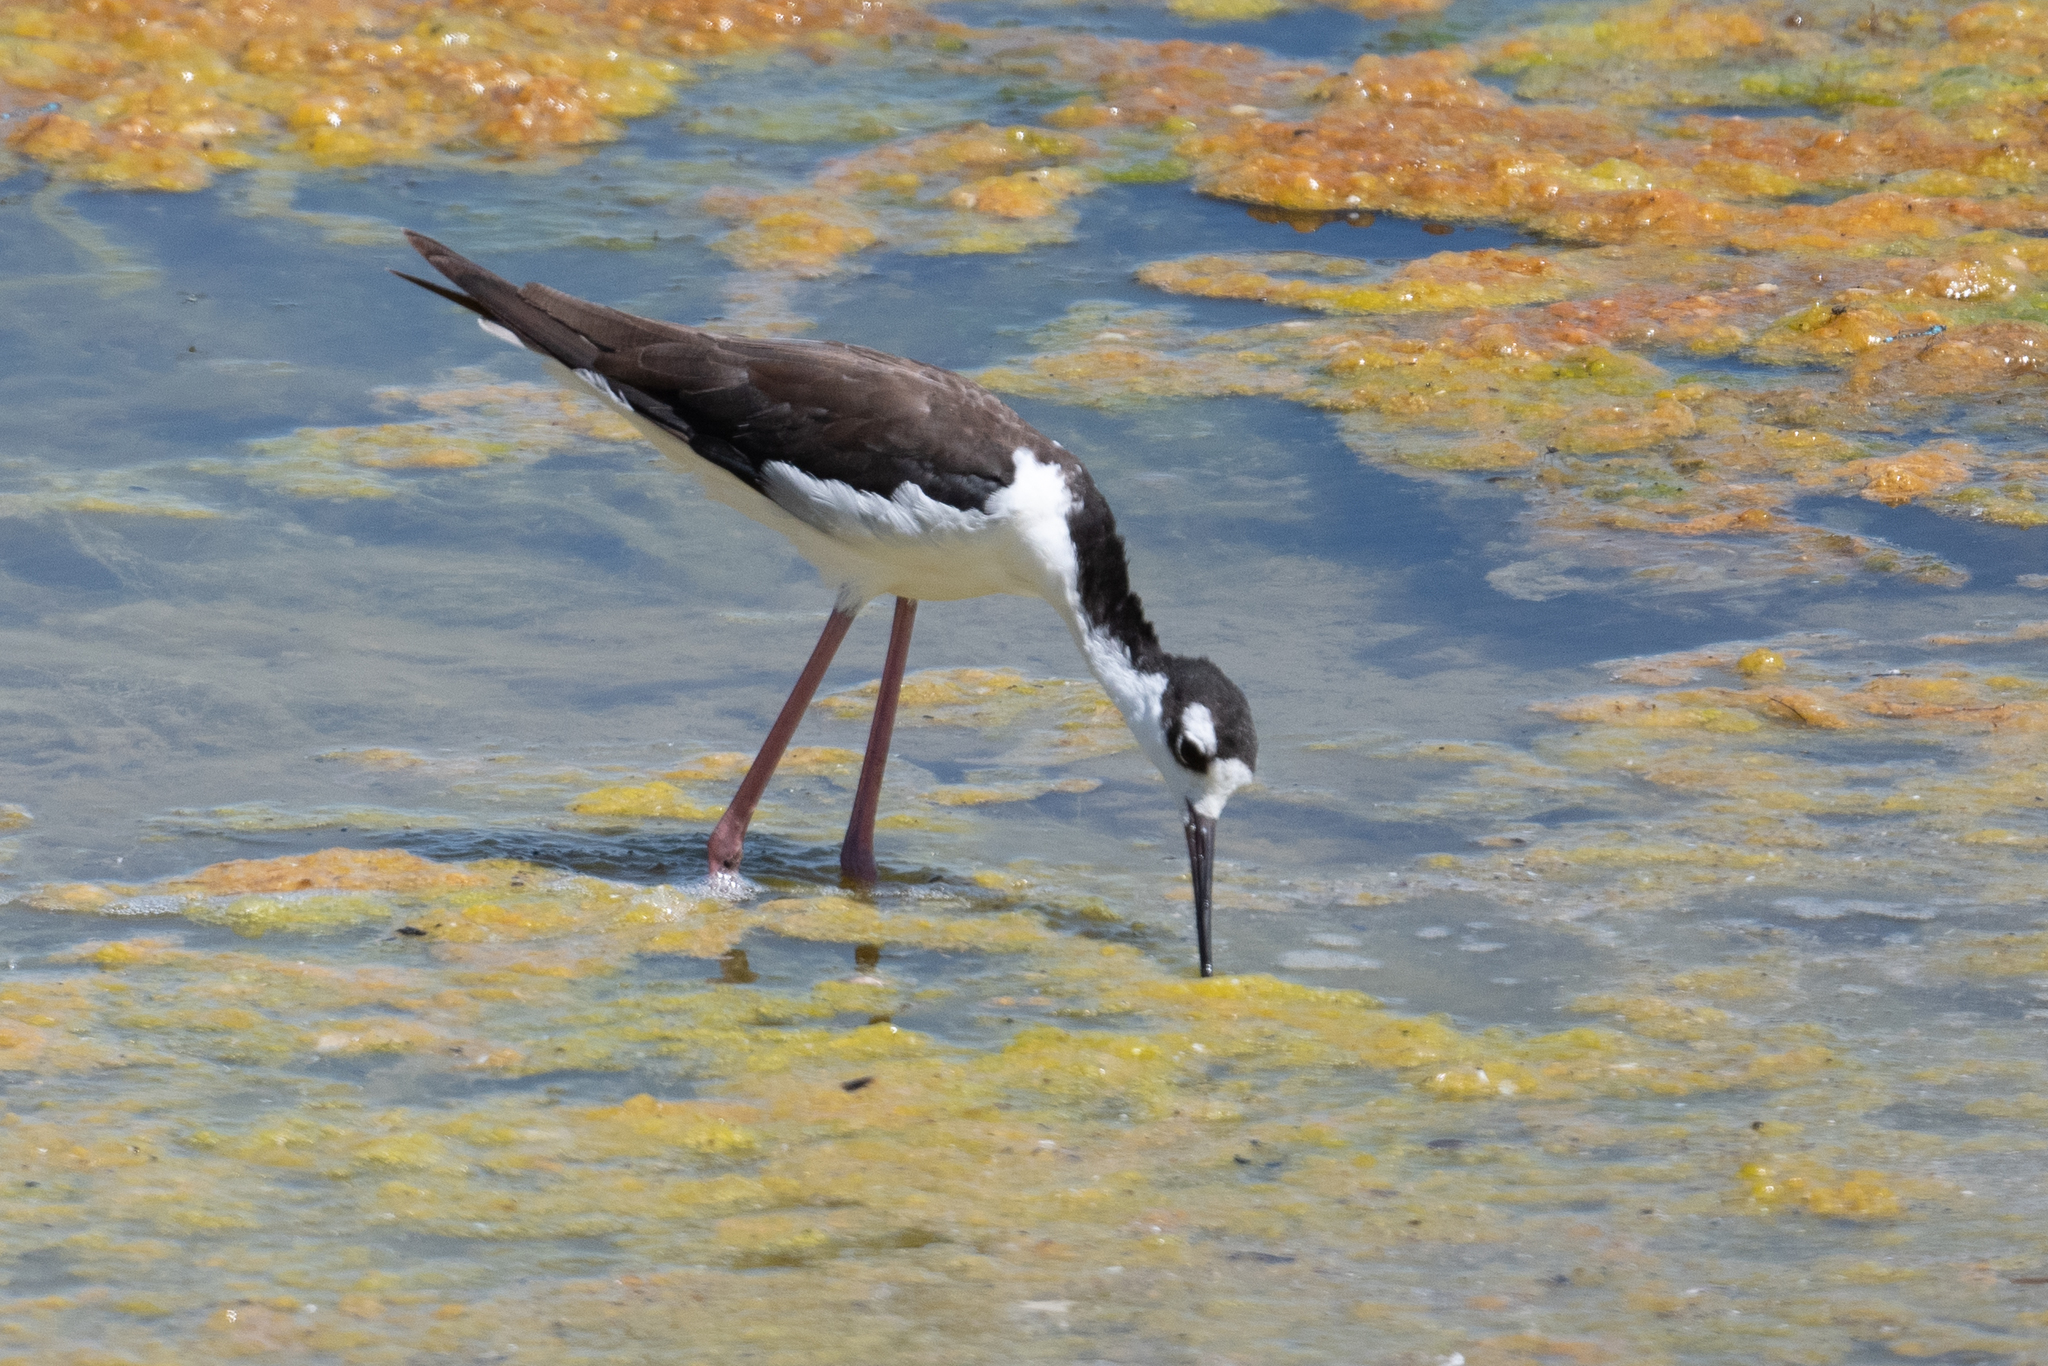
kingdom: Animalia
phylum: Chordata
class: Aves
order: Charadriiformes
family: Recurvirostridae
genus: Himantopus
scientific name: Himantopus mexicanus
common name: Black-necked stilt
